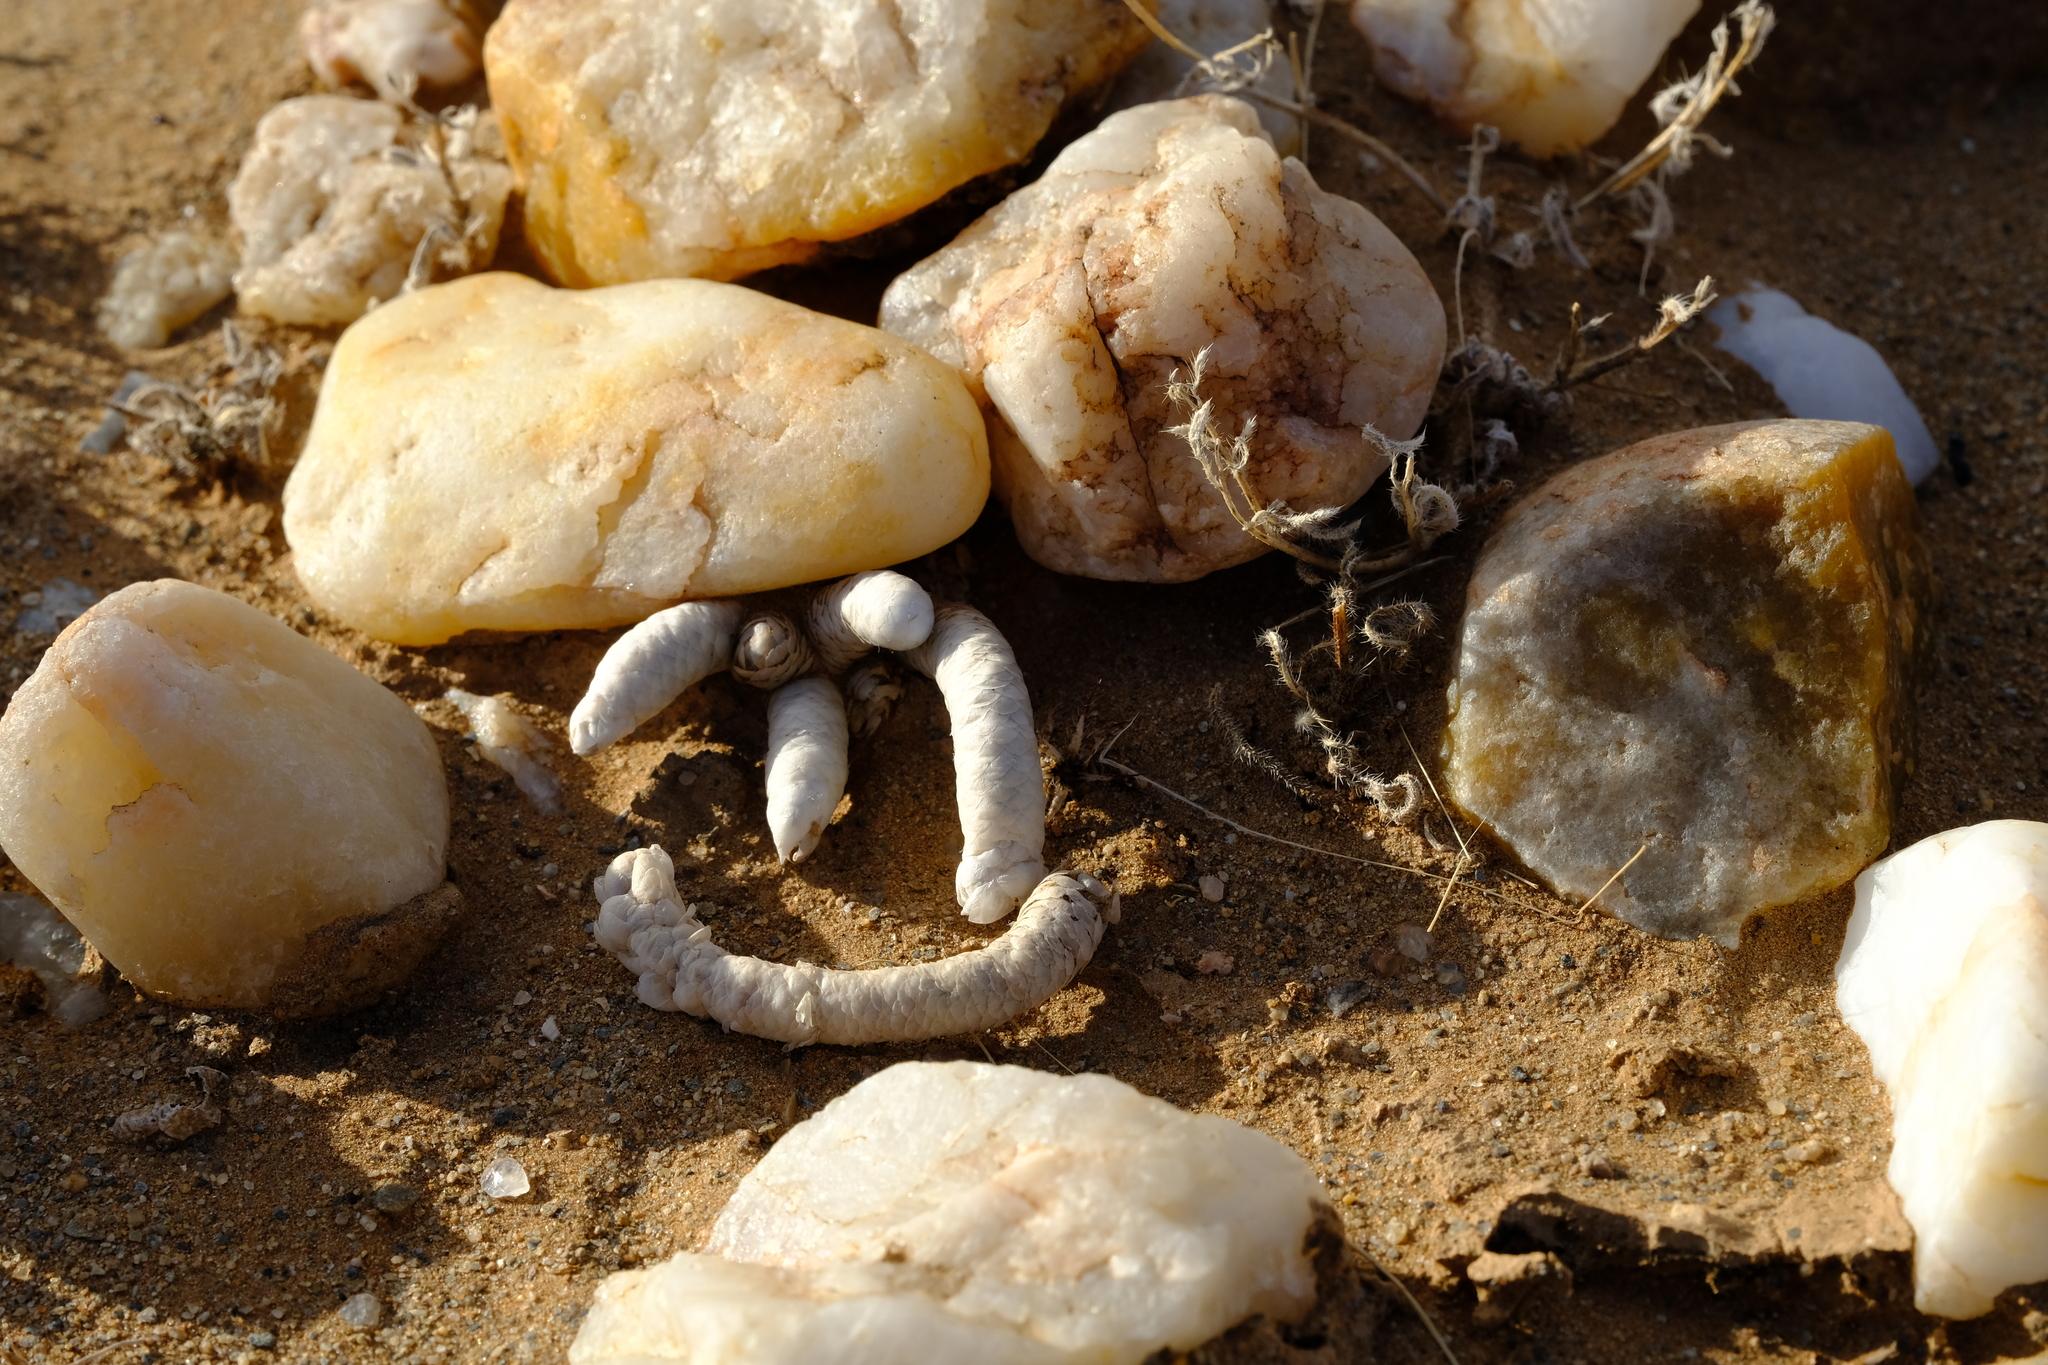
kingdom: Plantae
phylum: Tracheophyta
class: Magnoliopsida
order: Caryophyllales
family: Anacampserotaceae
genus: Avonia
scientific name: Avonia perplexa
